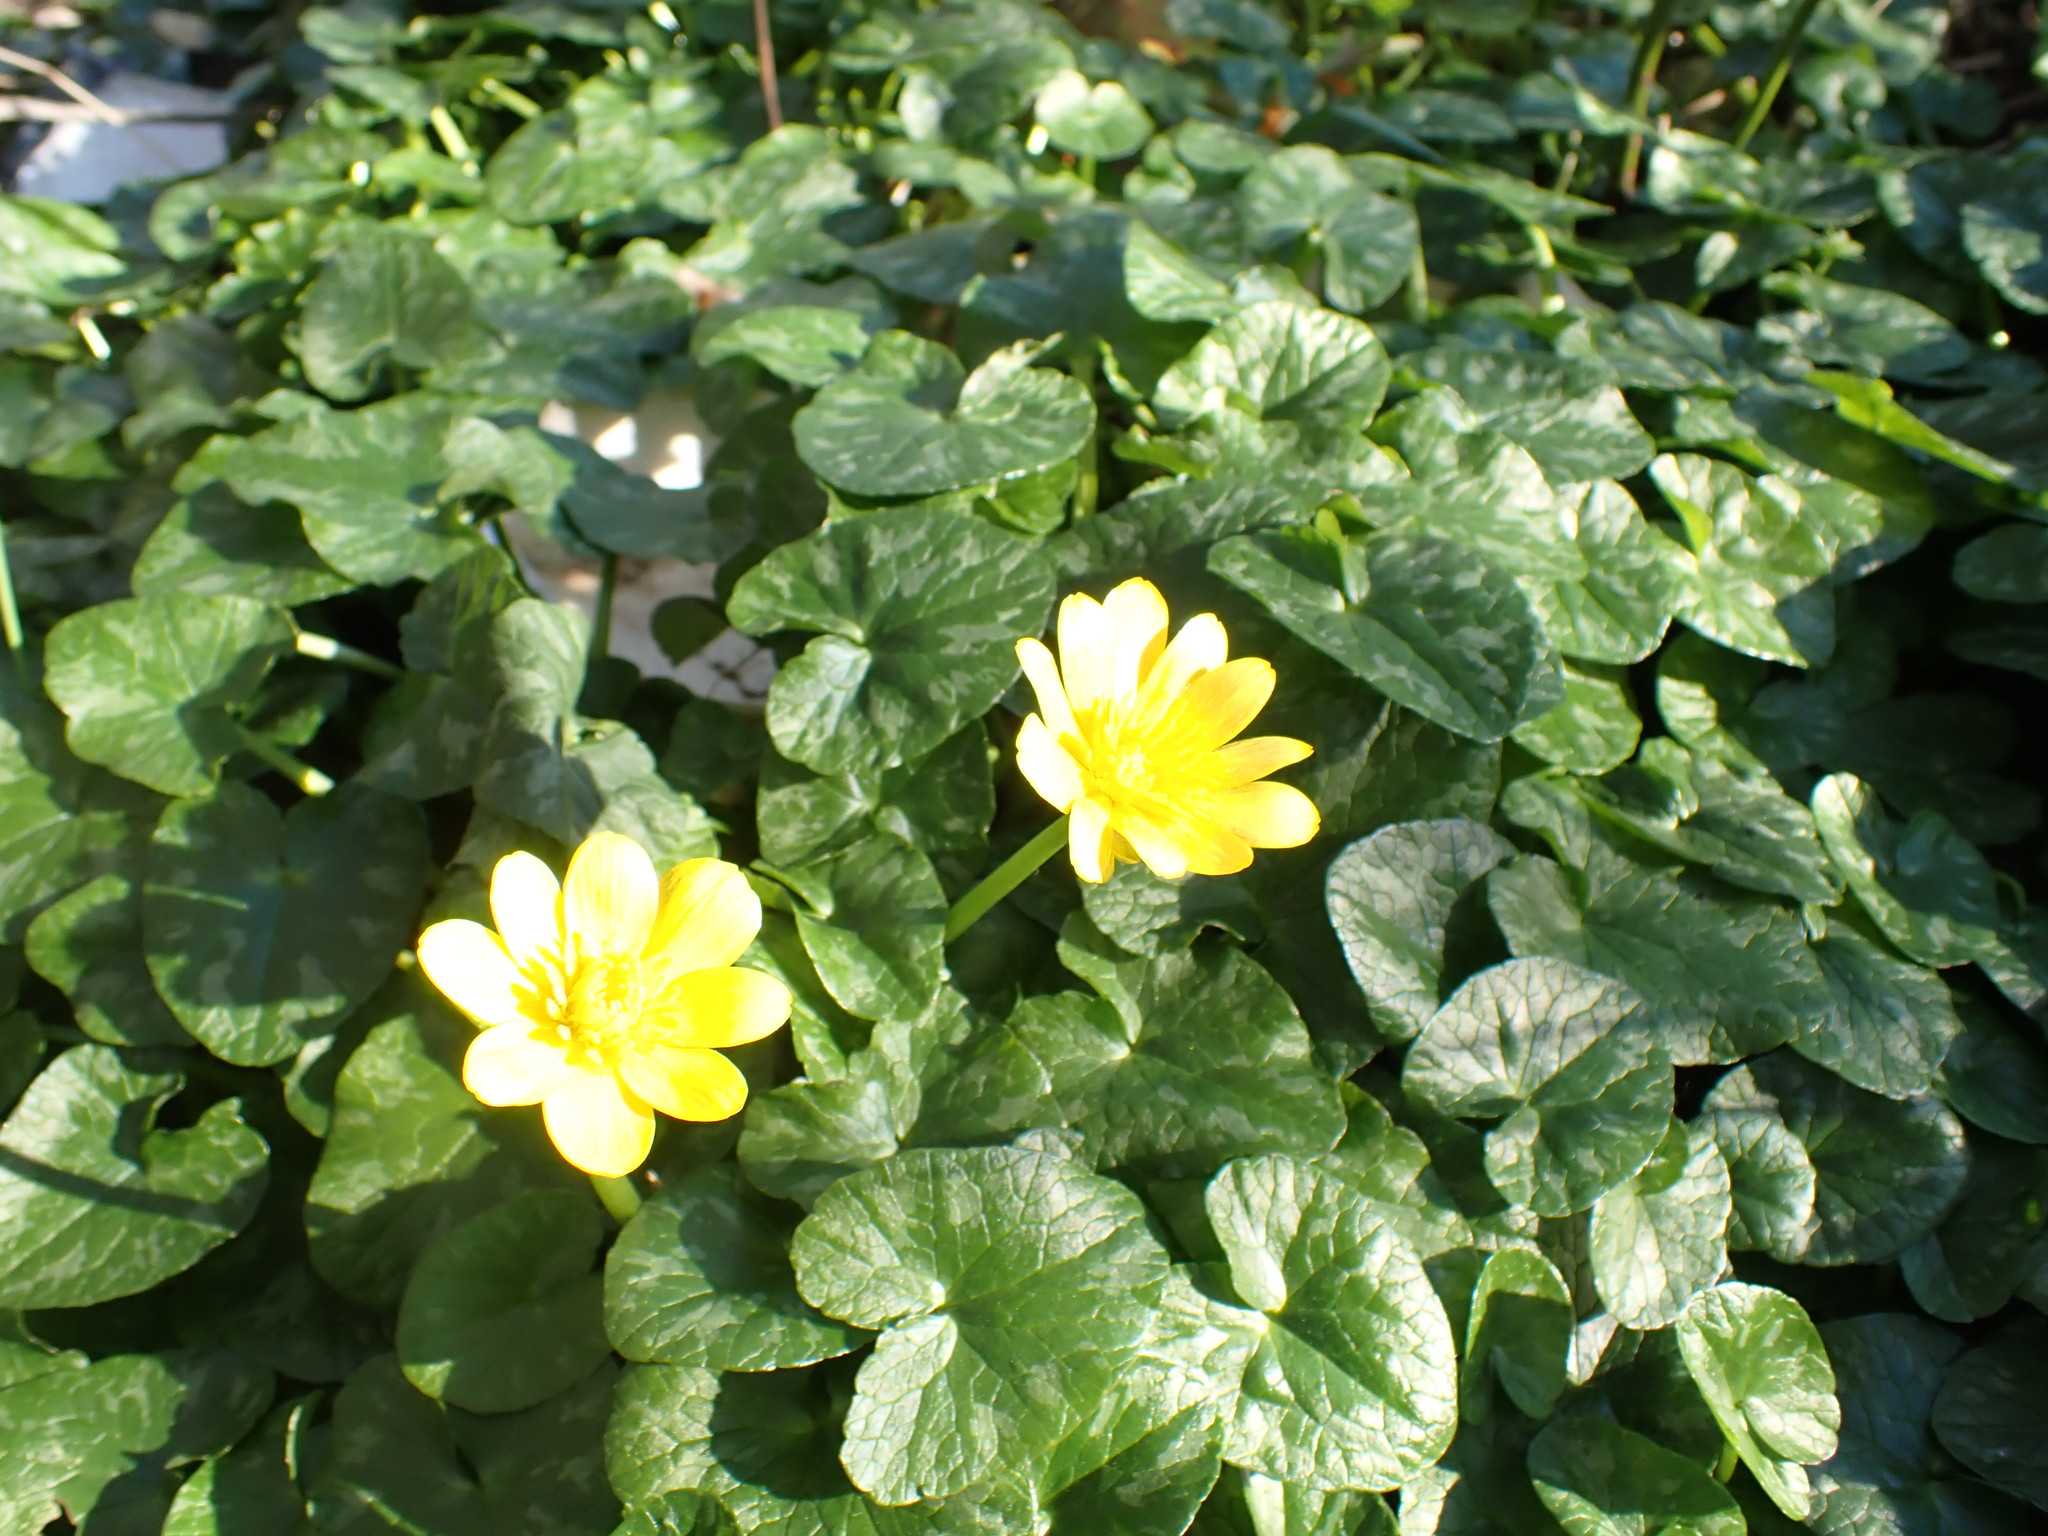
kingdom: Plantae
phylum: Tracheophyta
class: Magnoliopsida
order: Ranunculales
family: Ranunculaceae
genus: Ficaria
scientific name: Ficaria verna
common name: Lesser celandine
